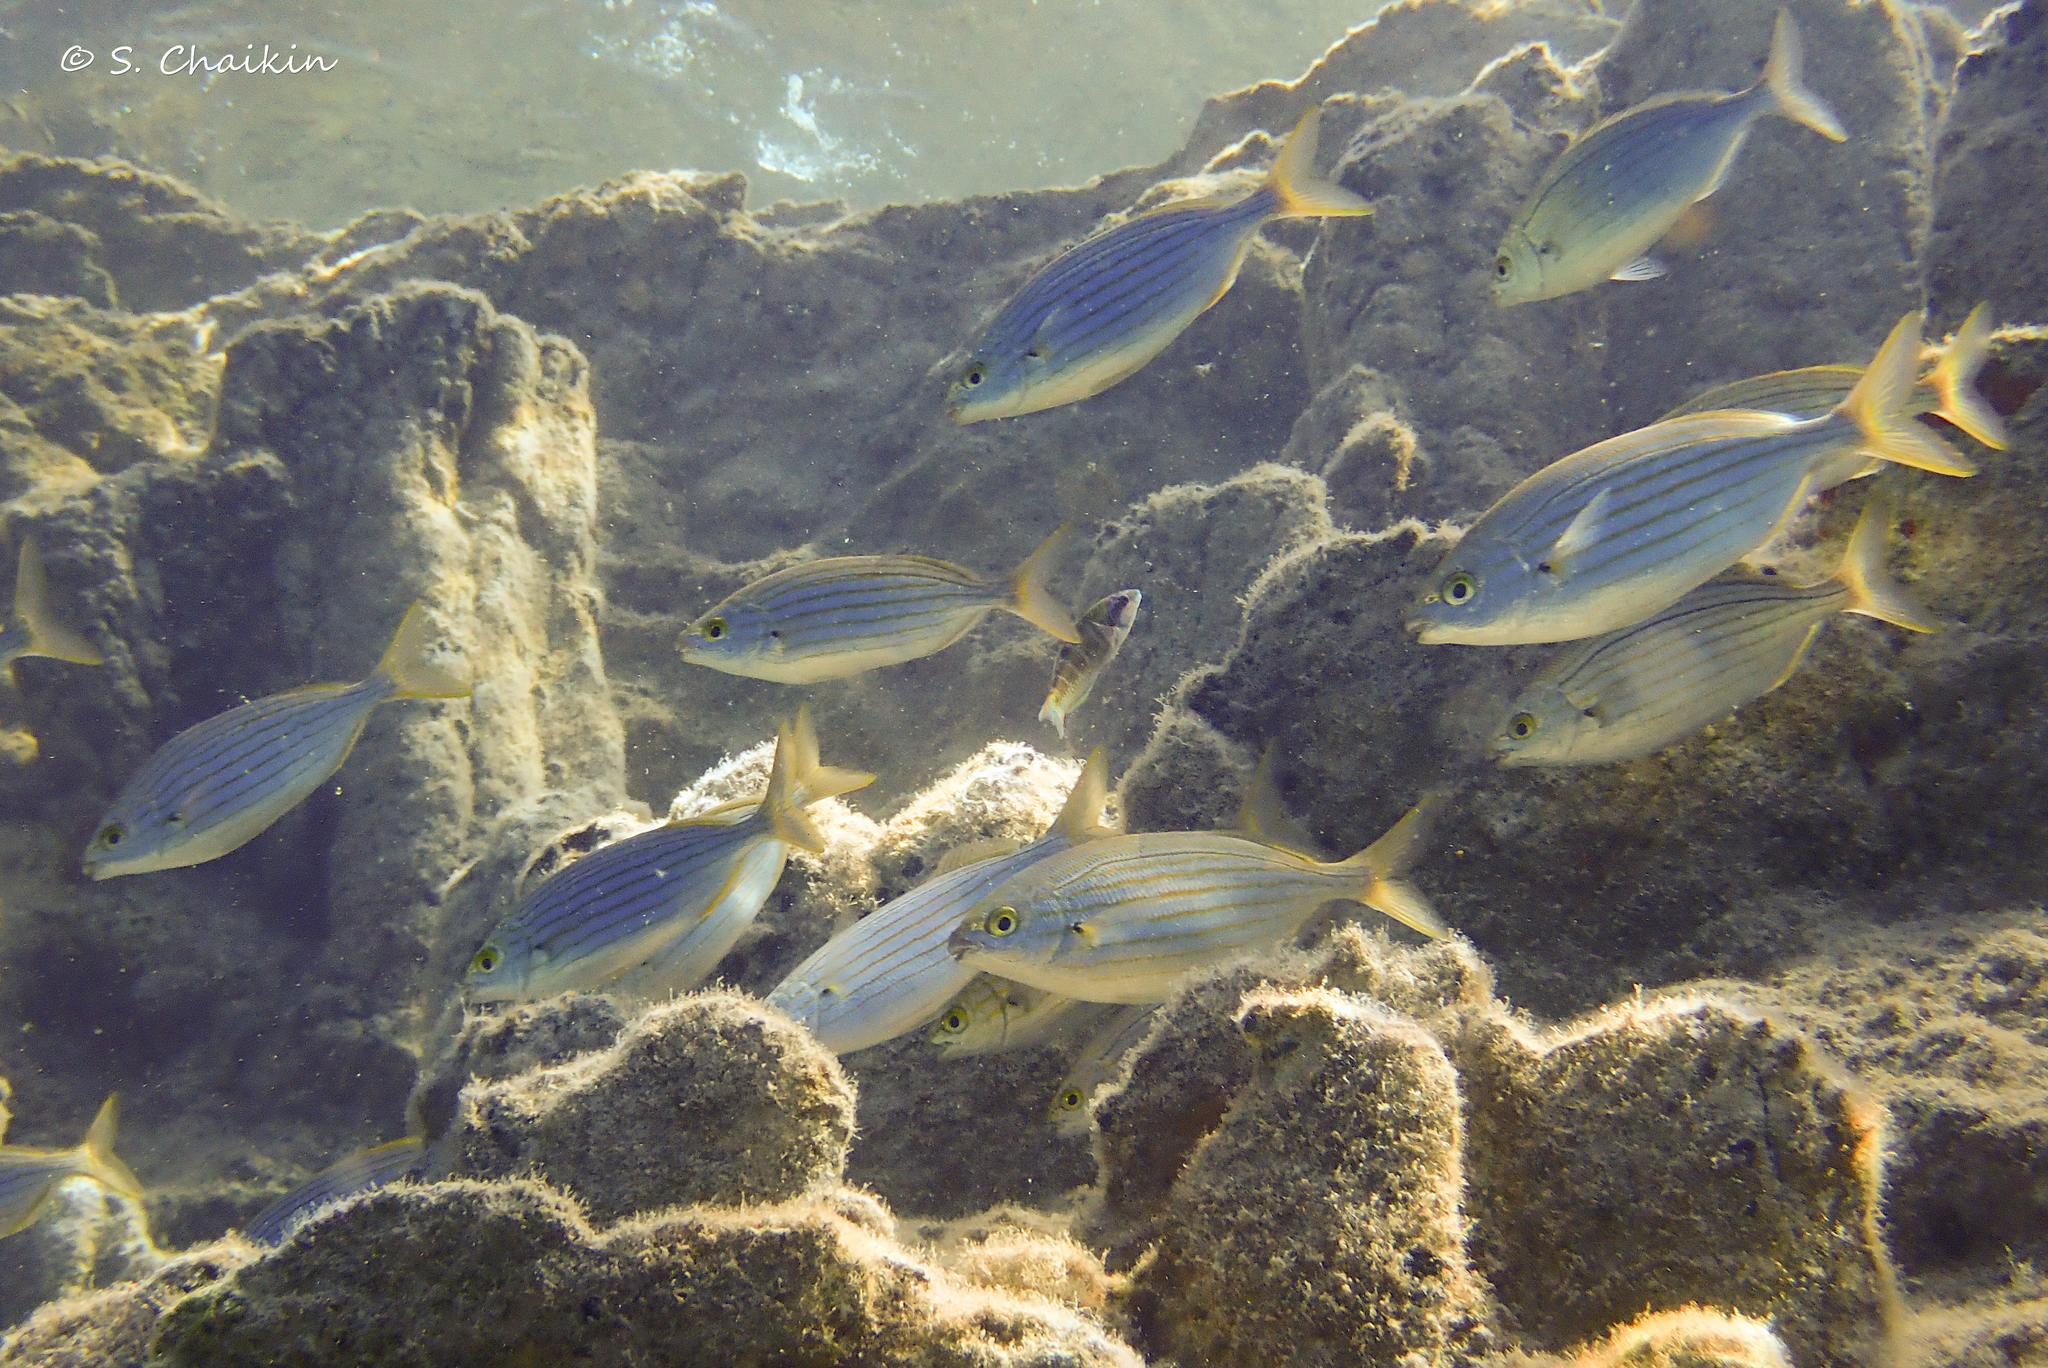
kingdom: Animalia
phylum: Chordata
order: Perciformes
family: Sparidae
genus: Sarpa
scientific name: Sarpa salpa
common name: Salema
